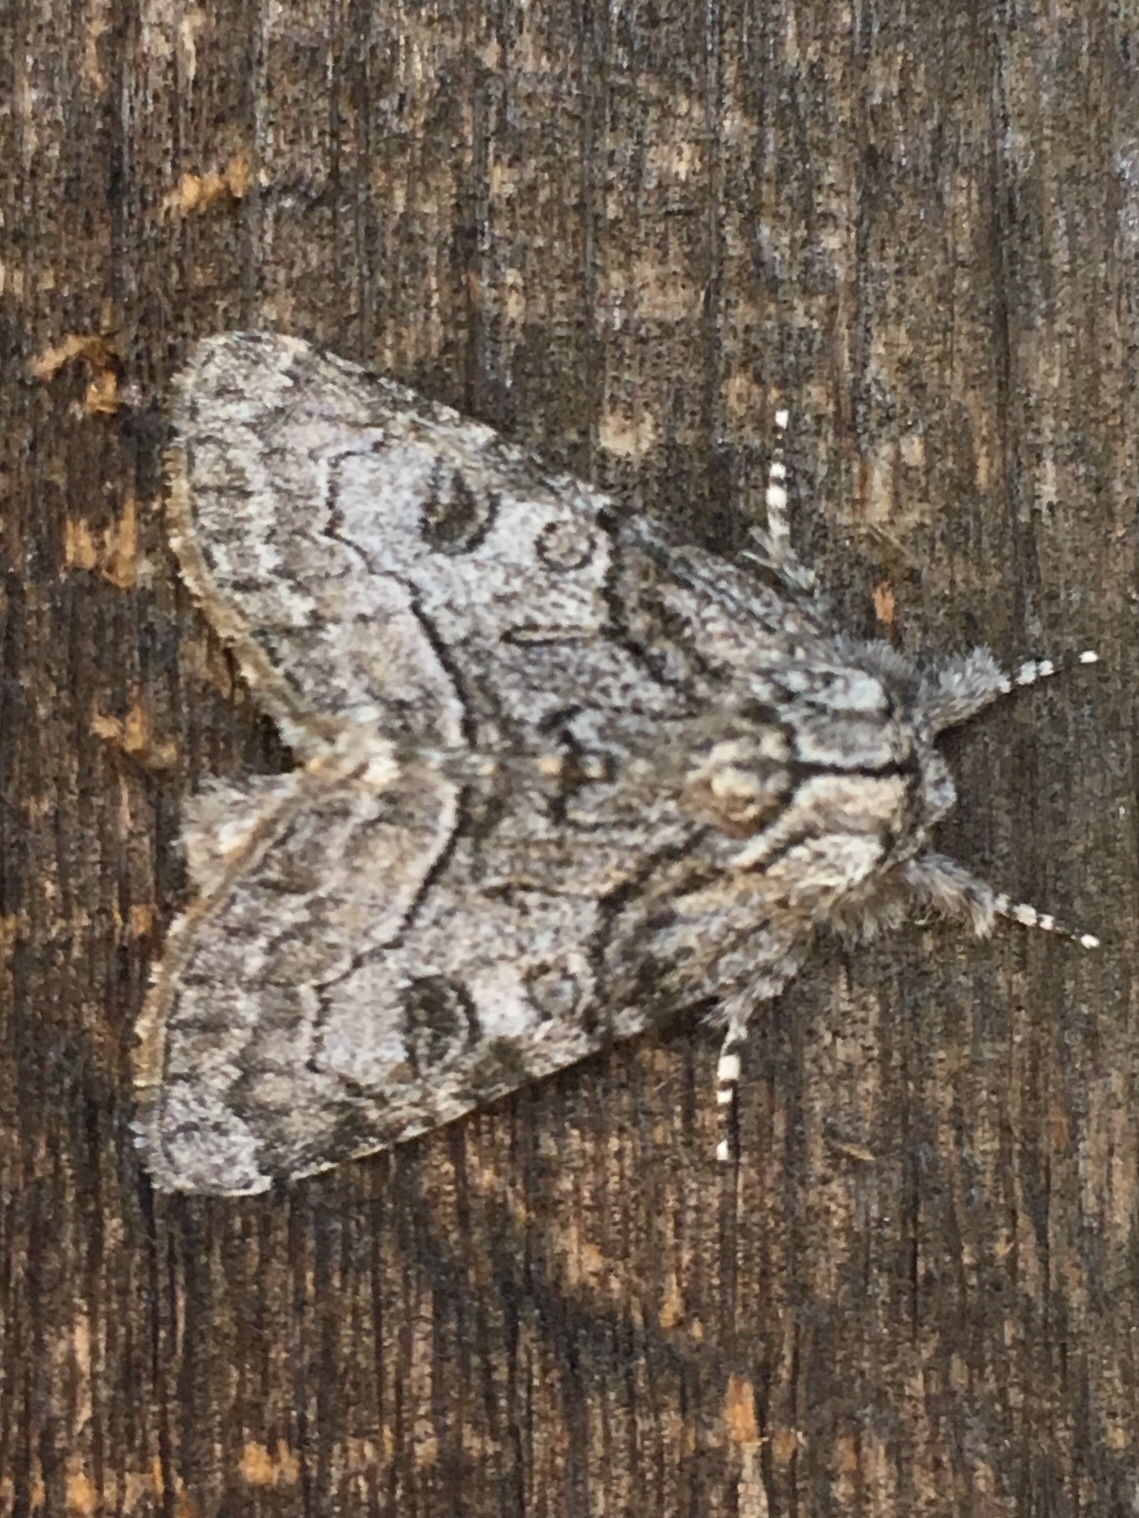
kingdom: Animalia
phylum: Arthropoda
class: Insecta
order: Lepidoptera
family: Noctuidae
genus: Raphia
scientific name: Raphia frater
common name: Brother
